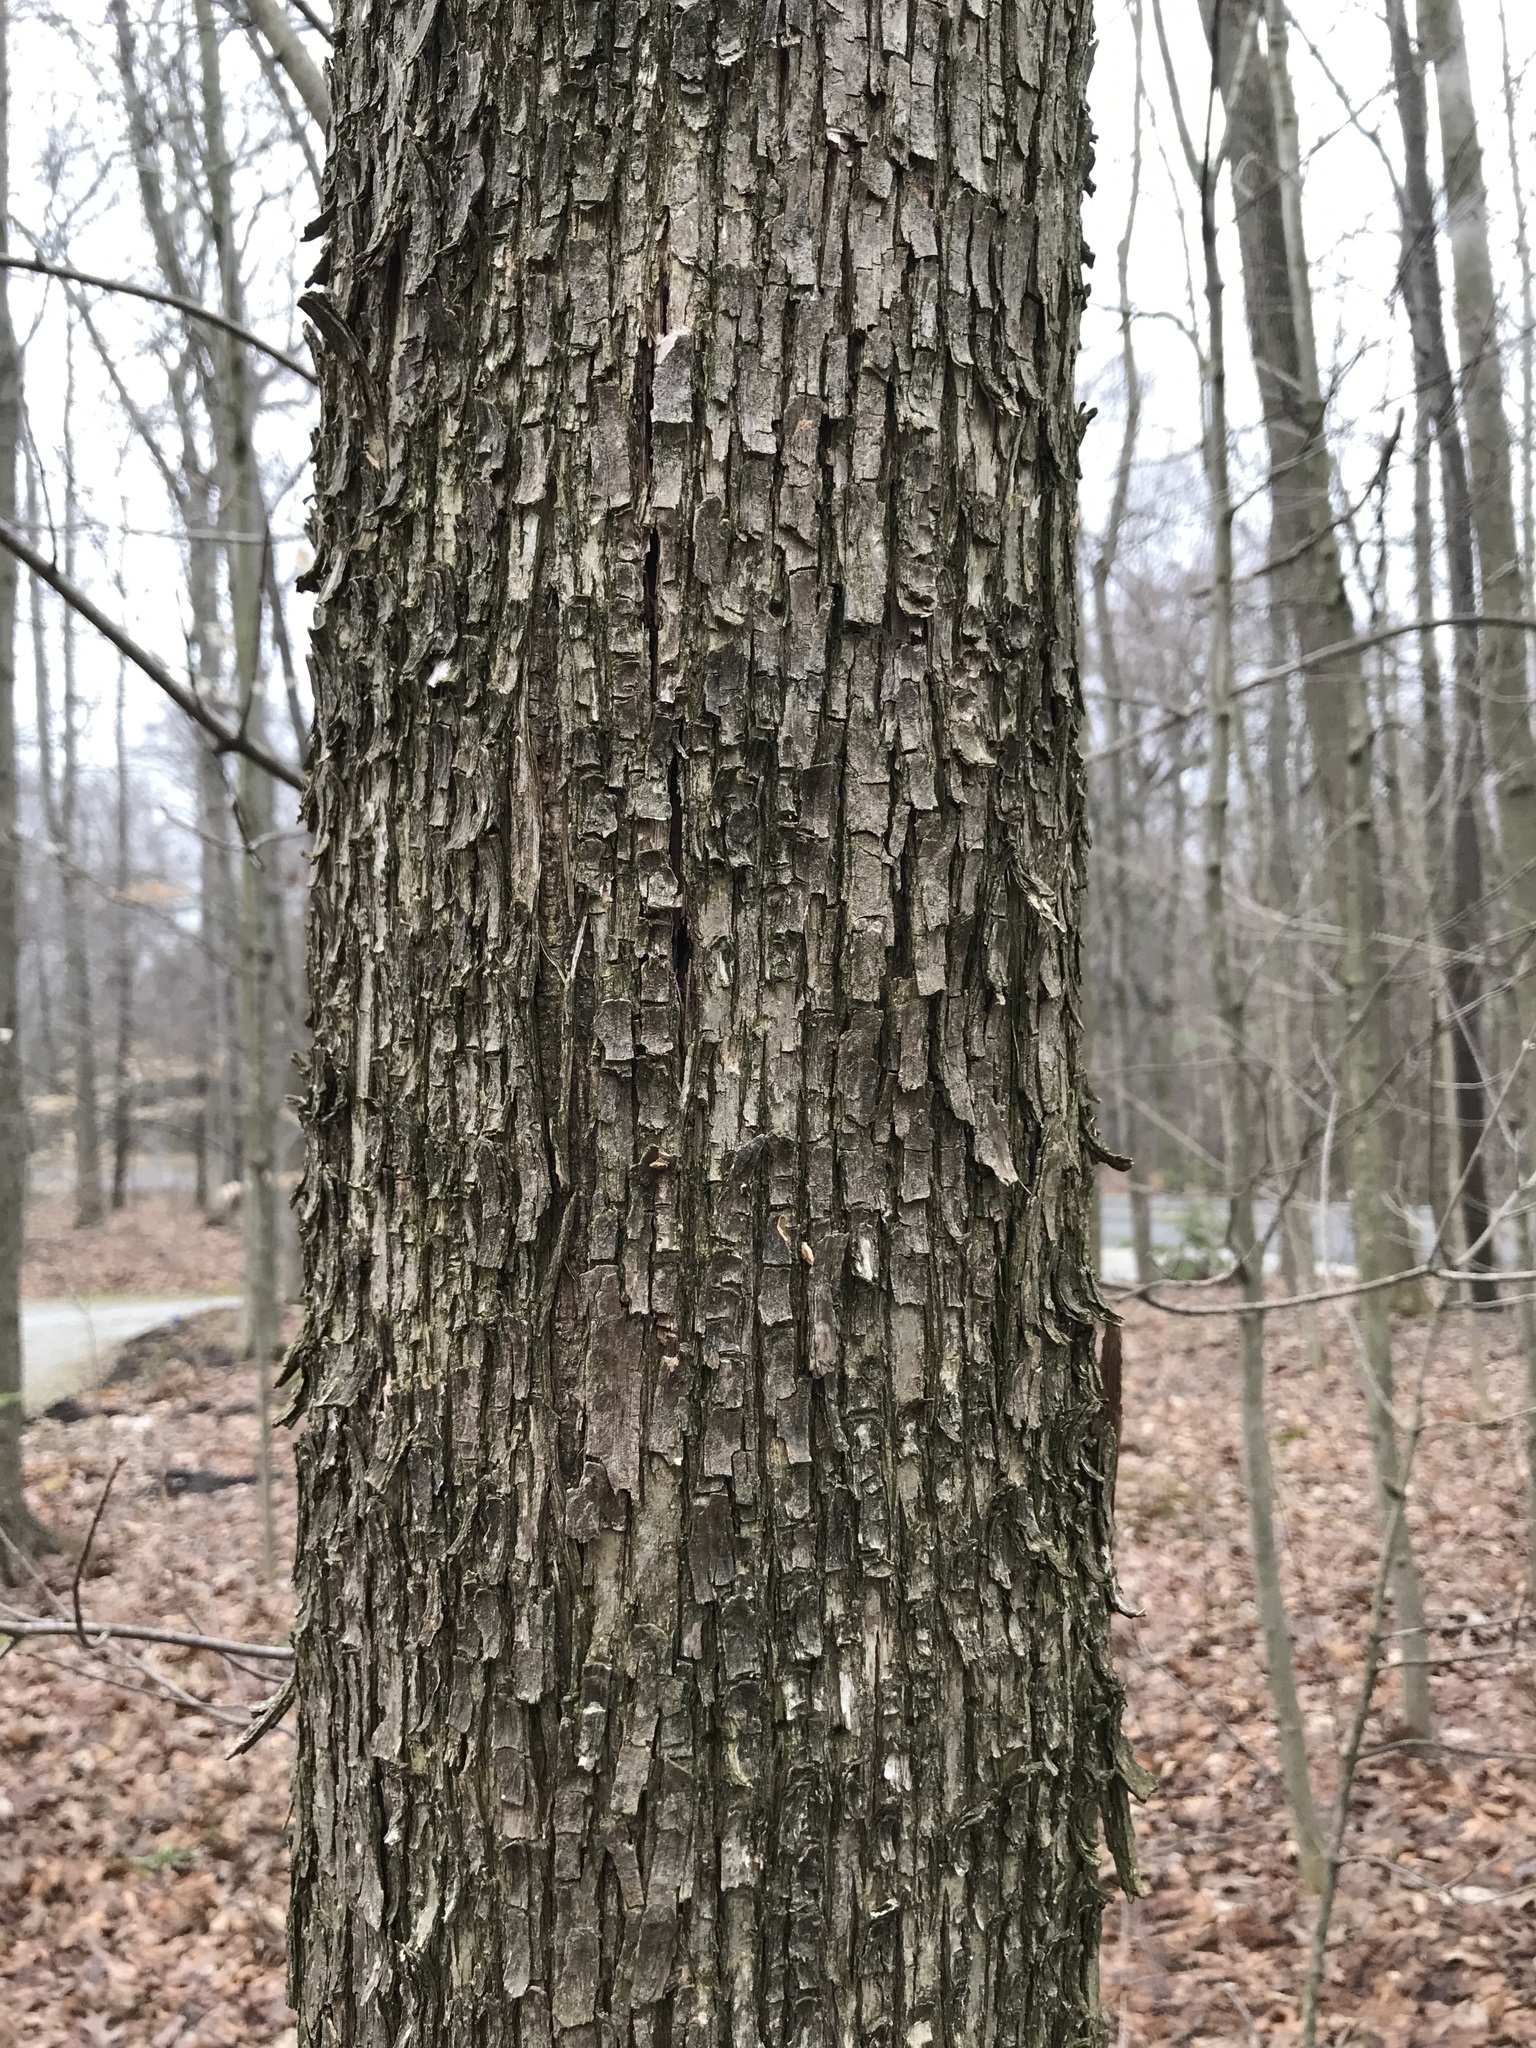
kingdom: Plantae
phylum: Tracheophyta
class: Magnoliopsida
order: Fagales
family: Betulaceae
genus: Ostrya
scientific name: Ostrya virginiana
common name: Ironwood
